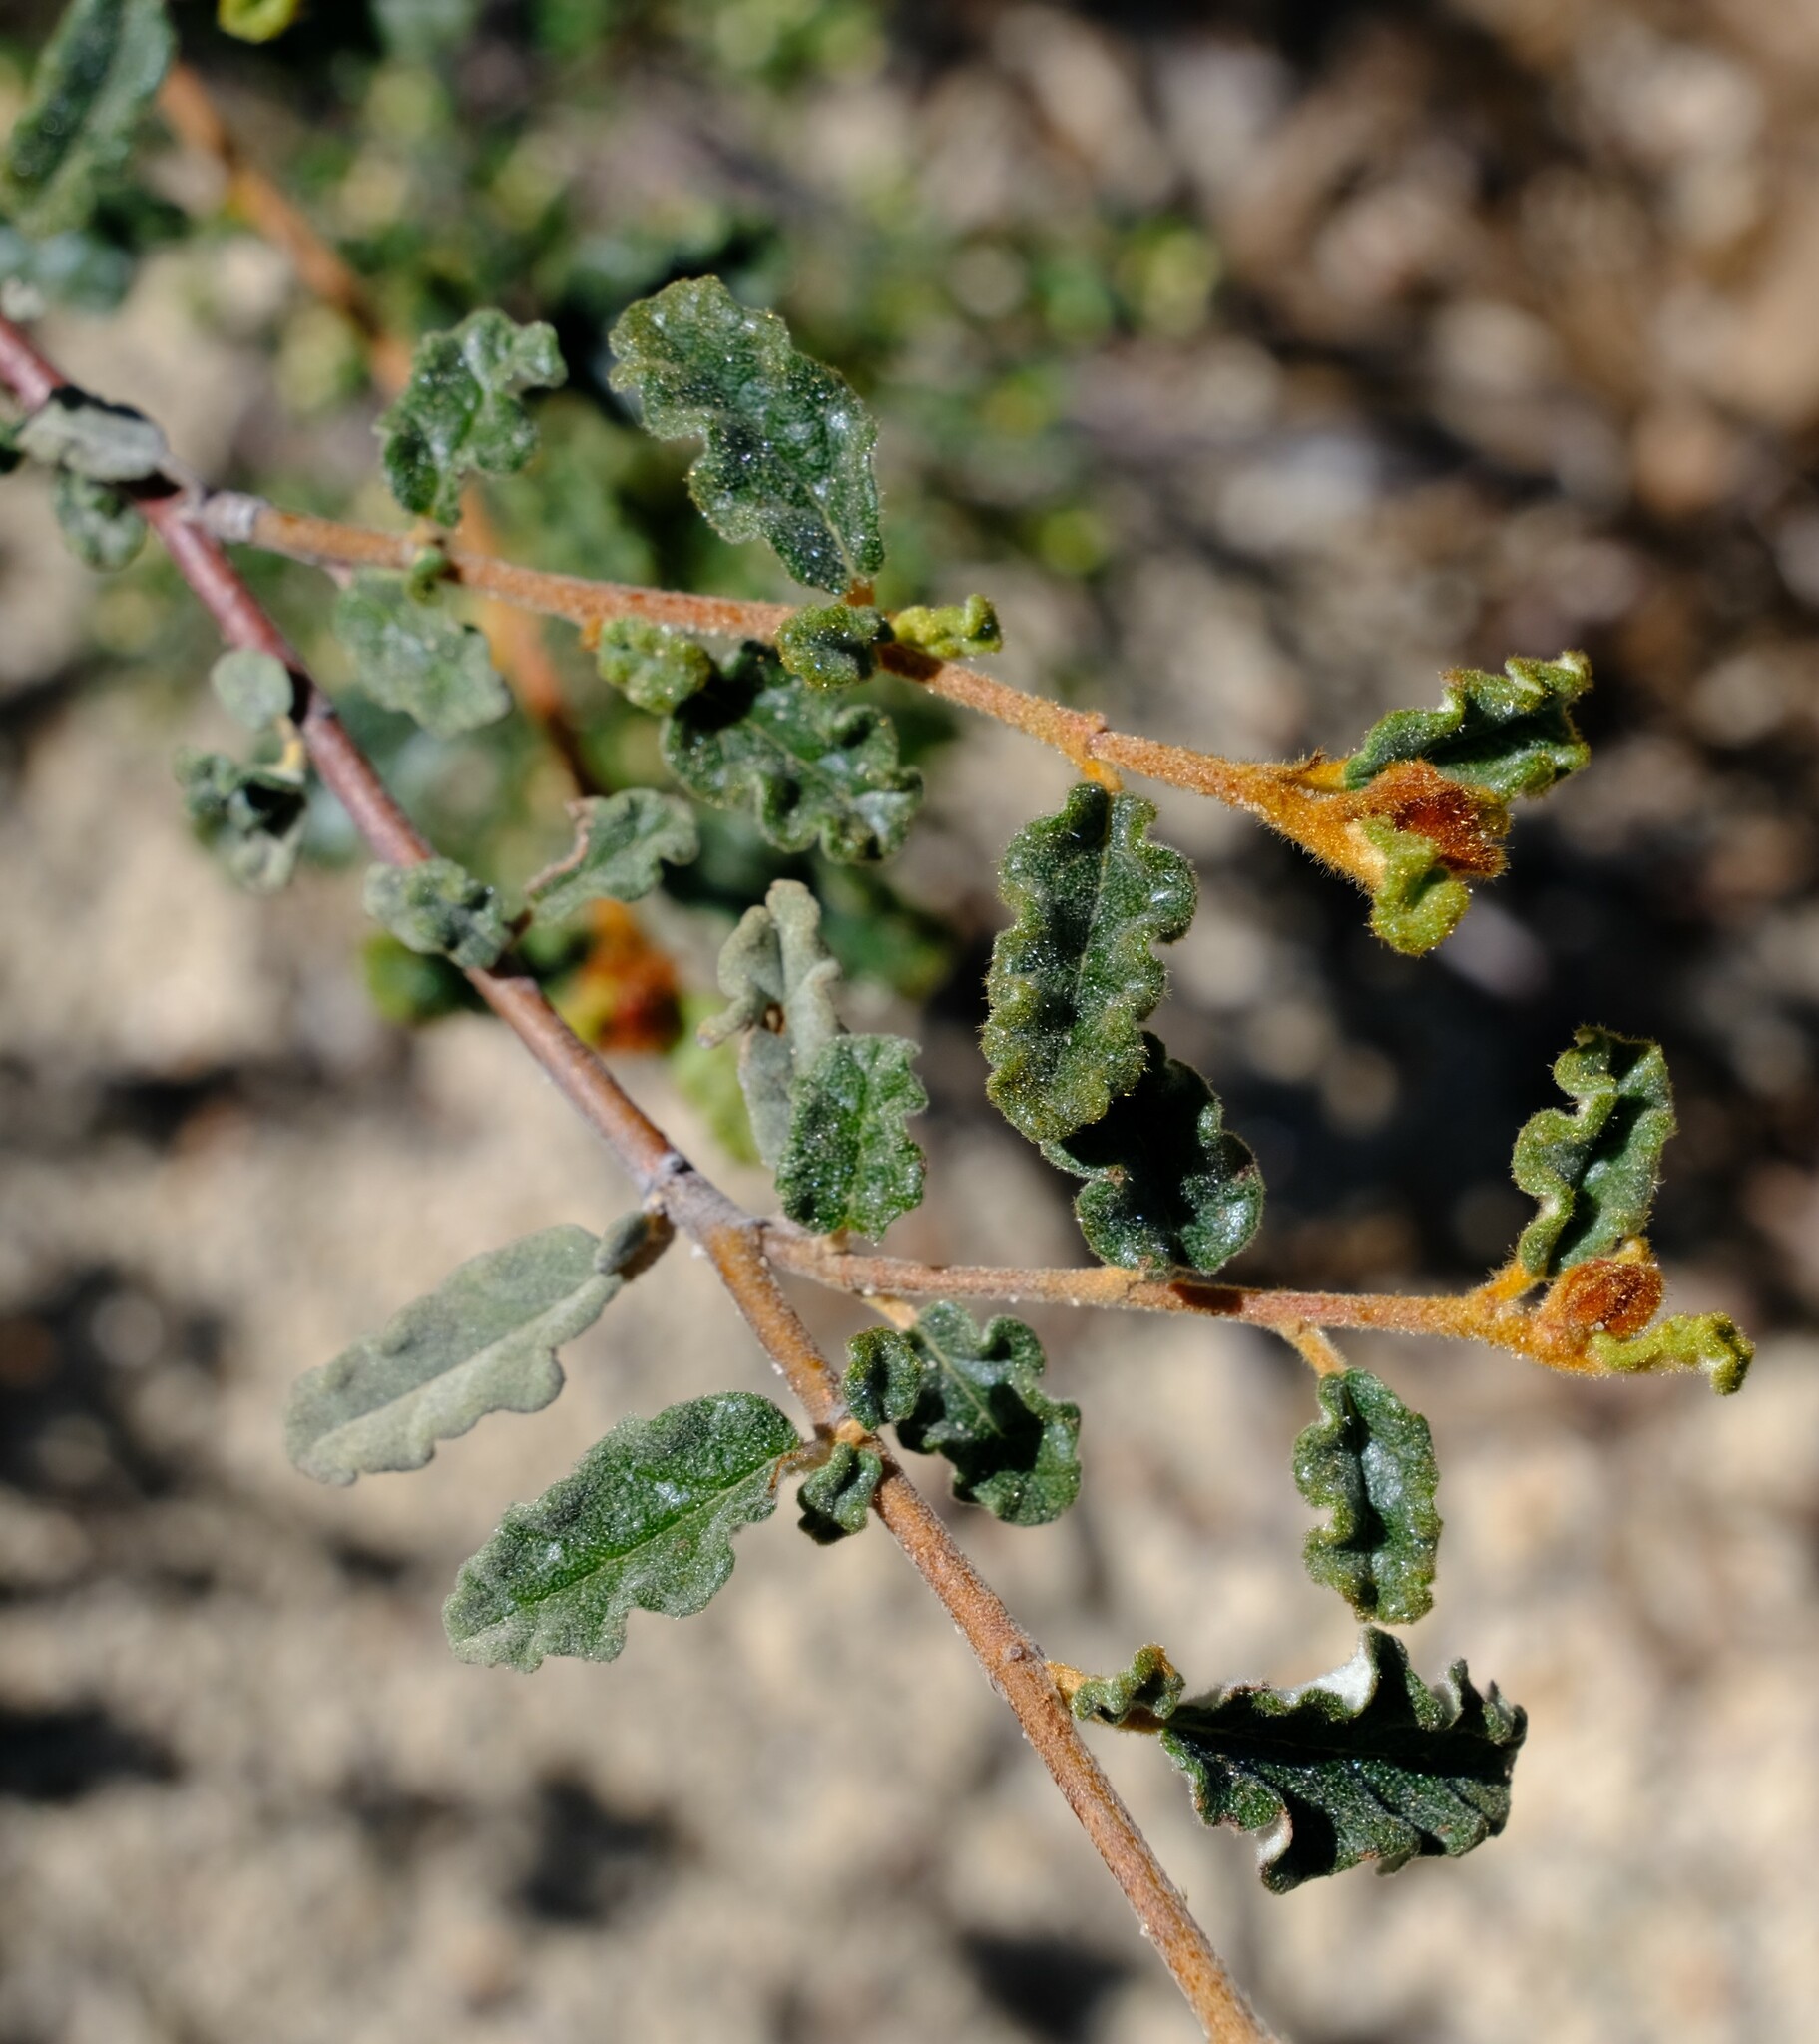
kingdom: Plantae
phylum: Tracheophyta
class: Magnoliopsida
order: Malvales
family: Malvaceae
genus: Androcalva
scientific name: Androcalva pulchella
